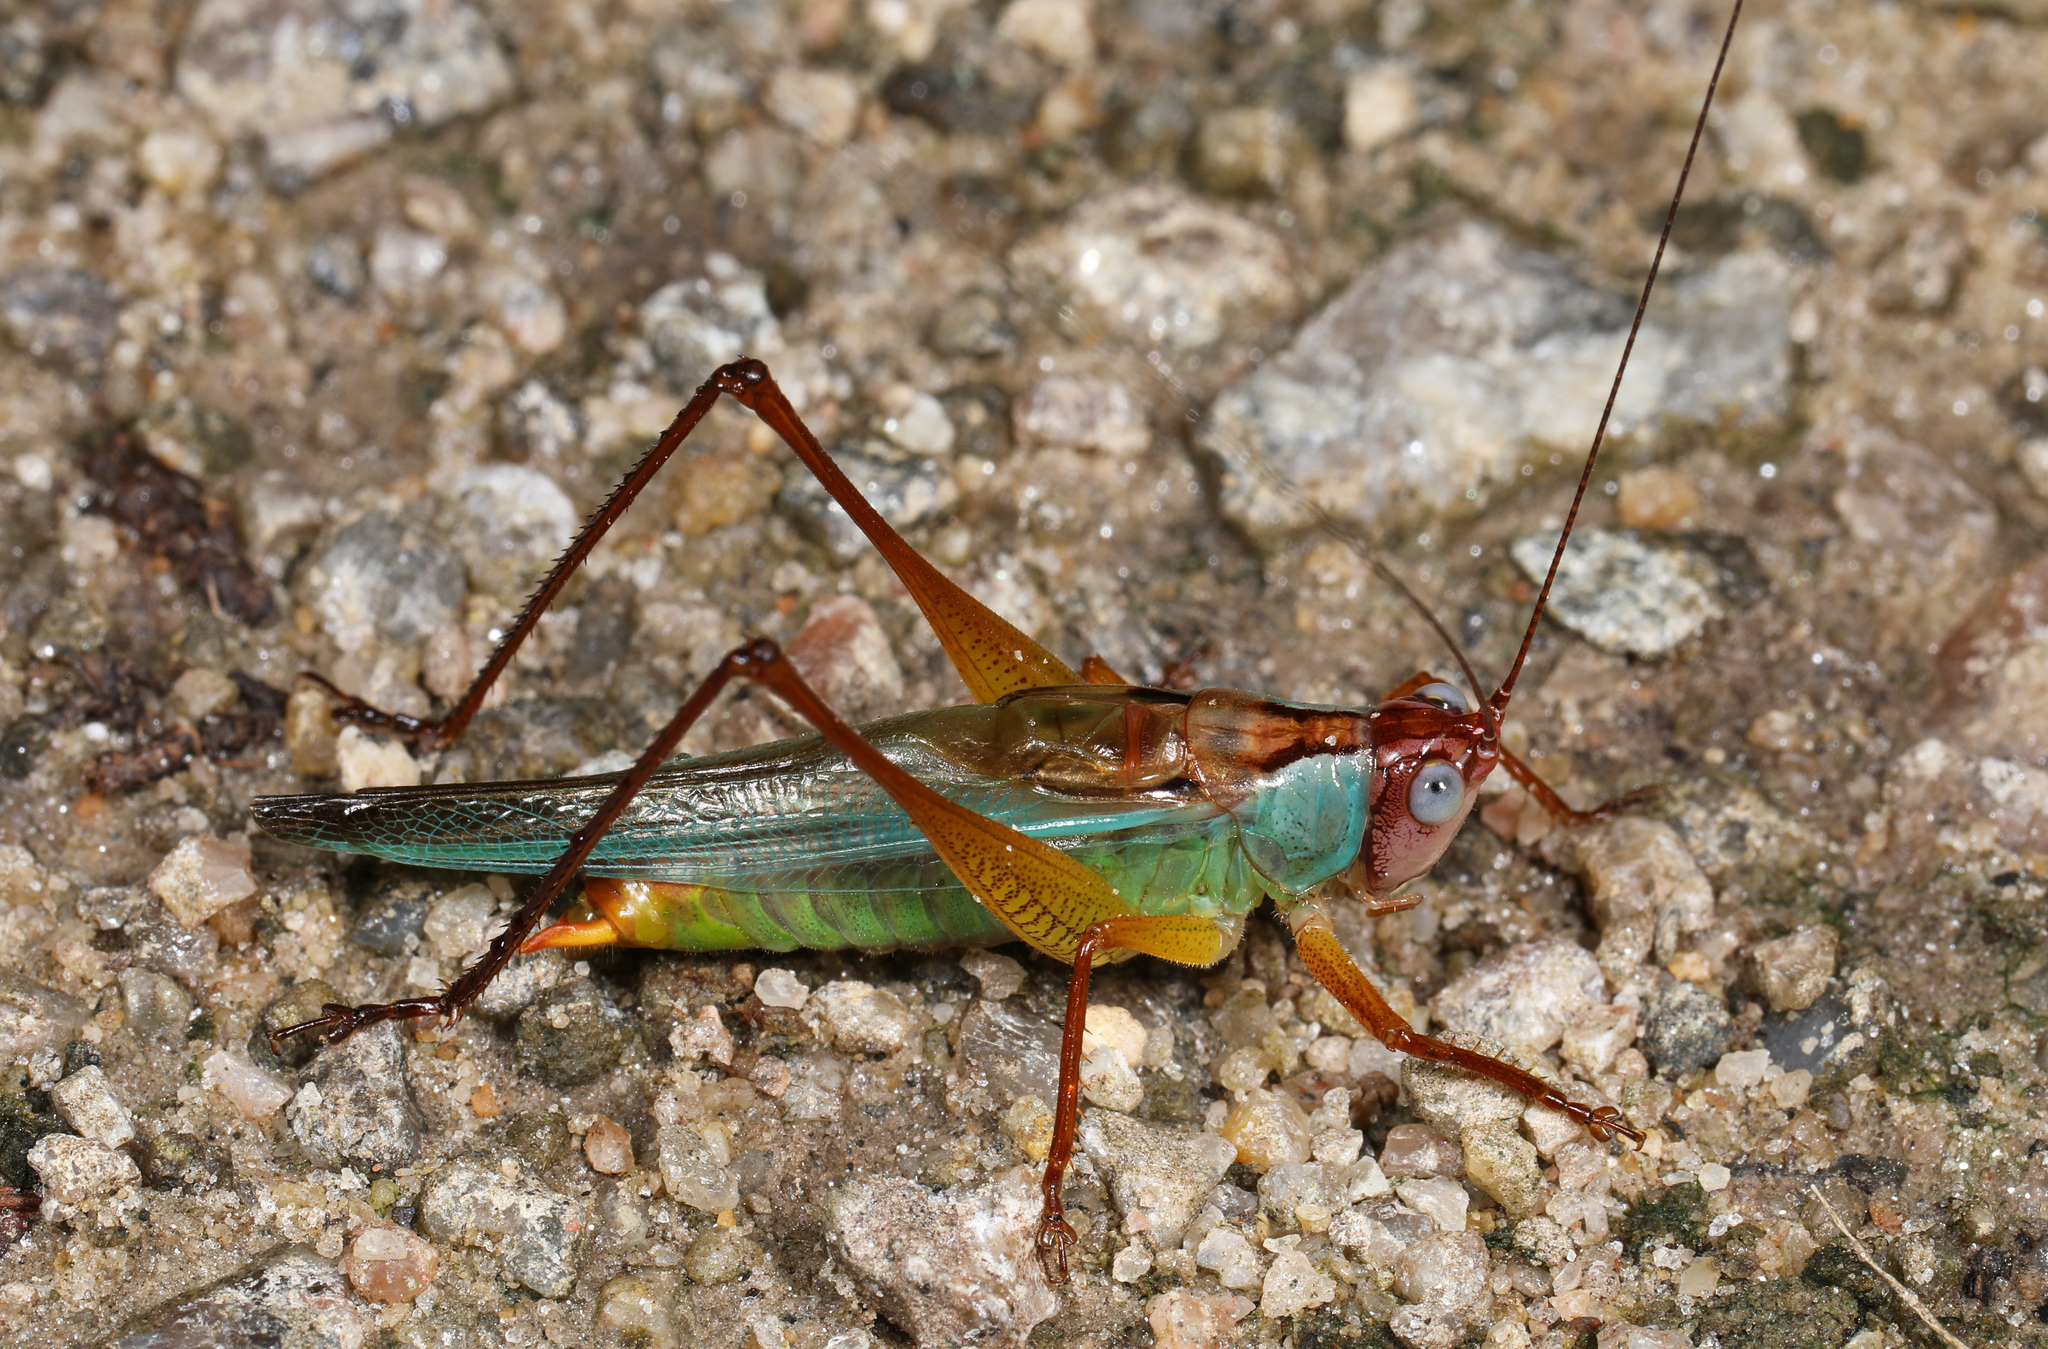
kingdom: Animalia
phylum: Arthropoda
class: Insecta
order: Orthoptera
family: Tettigoniidae
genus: Orchelimum
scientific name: Orchelimum pulchellum
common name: Handsome meadow katydid
